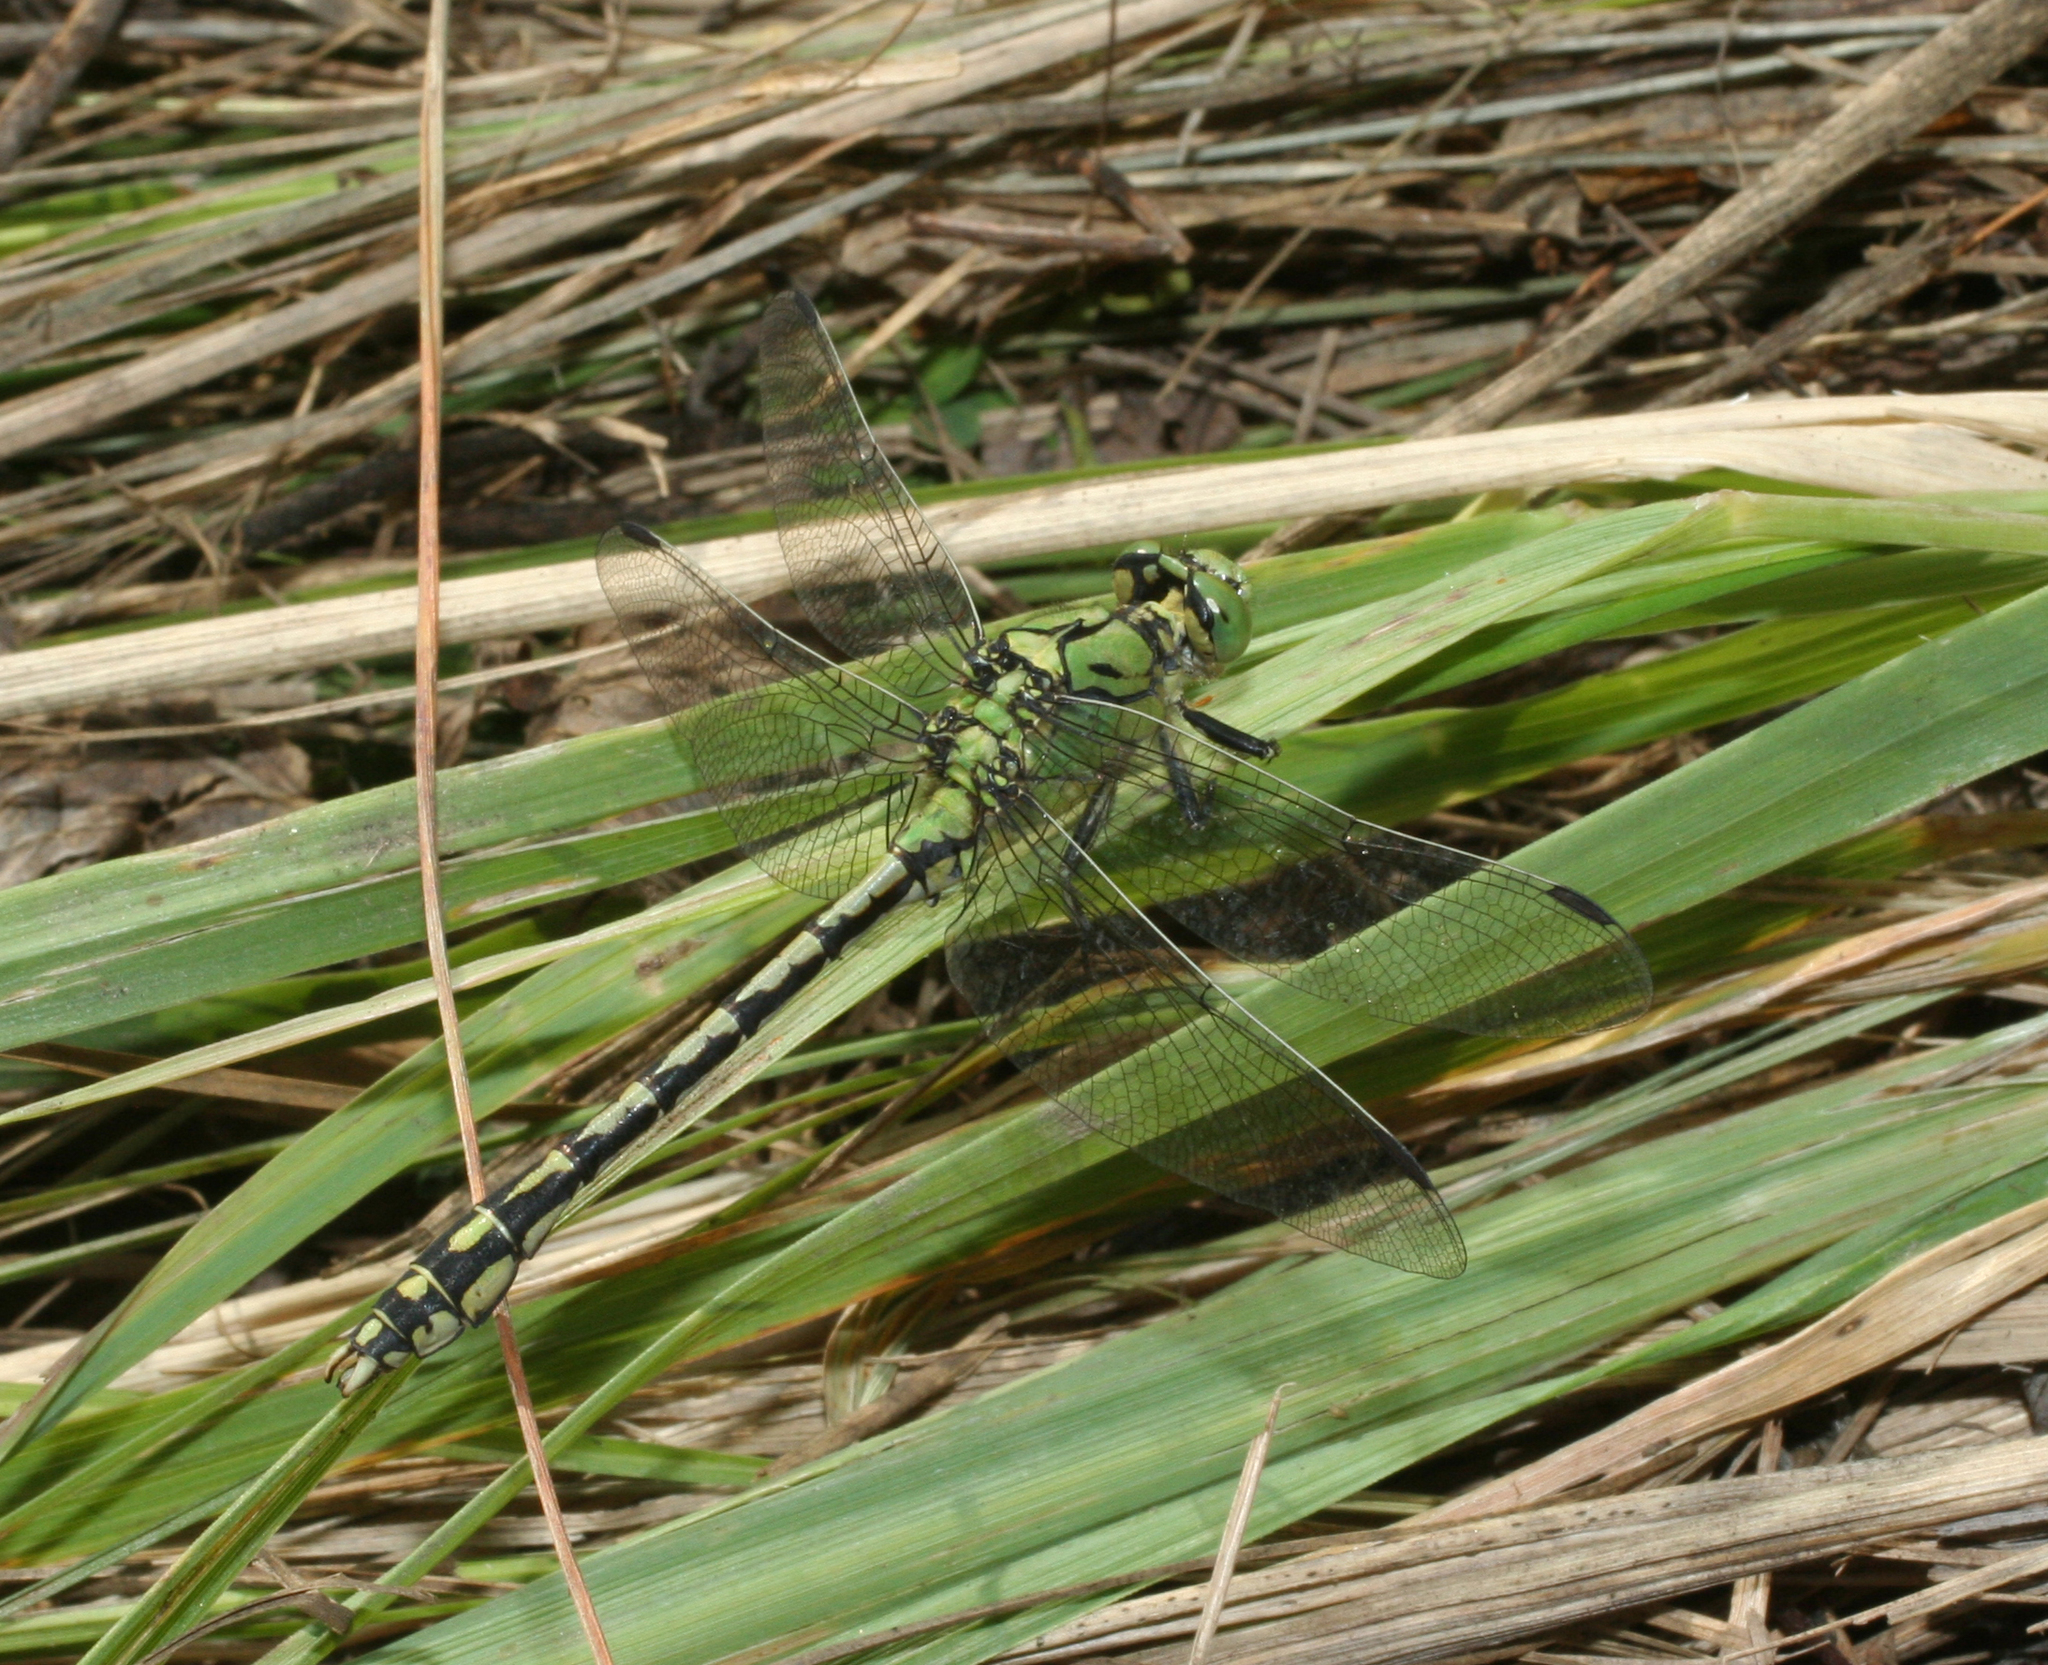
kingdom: Animalia
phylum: Arthropoda
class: Insecta
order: Odonata
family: Gomphidae
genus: Ophiogomphus
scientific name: Ophiogomphus cecilia
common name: Green snaketail
